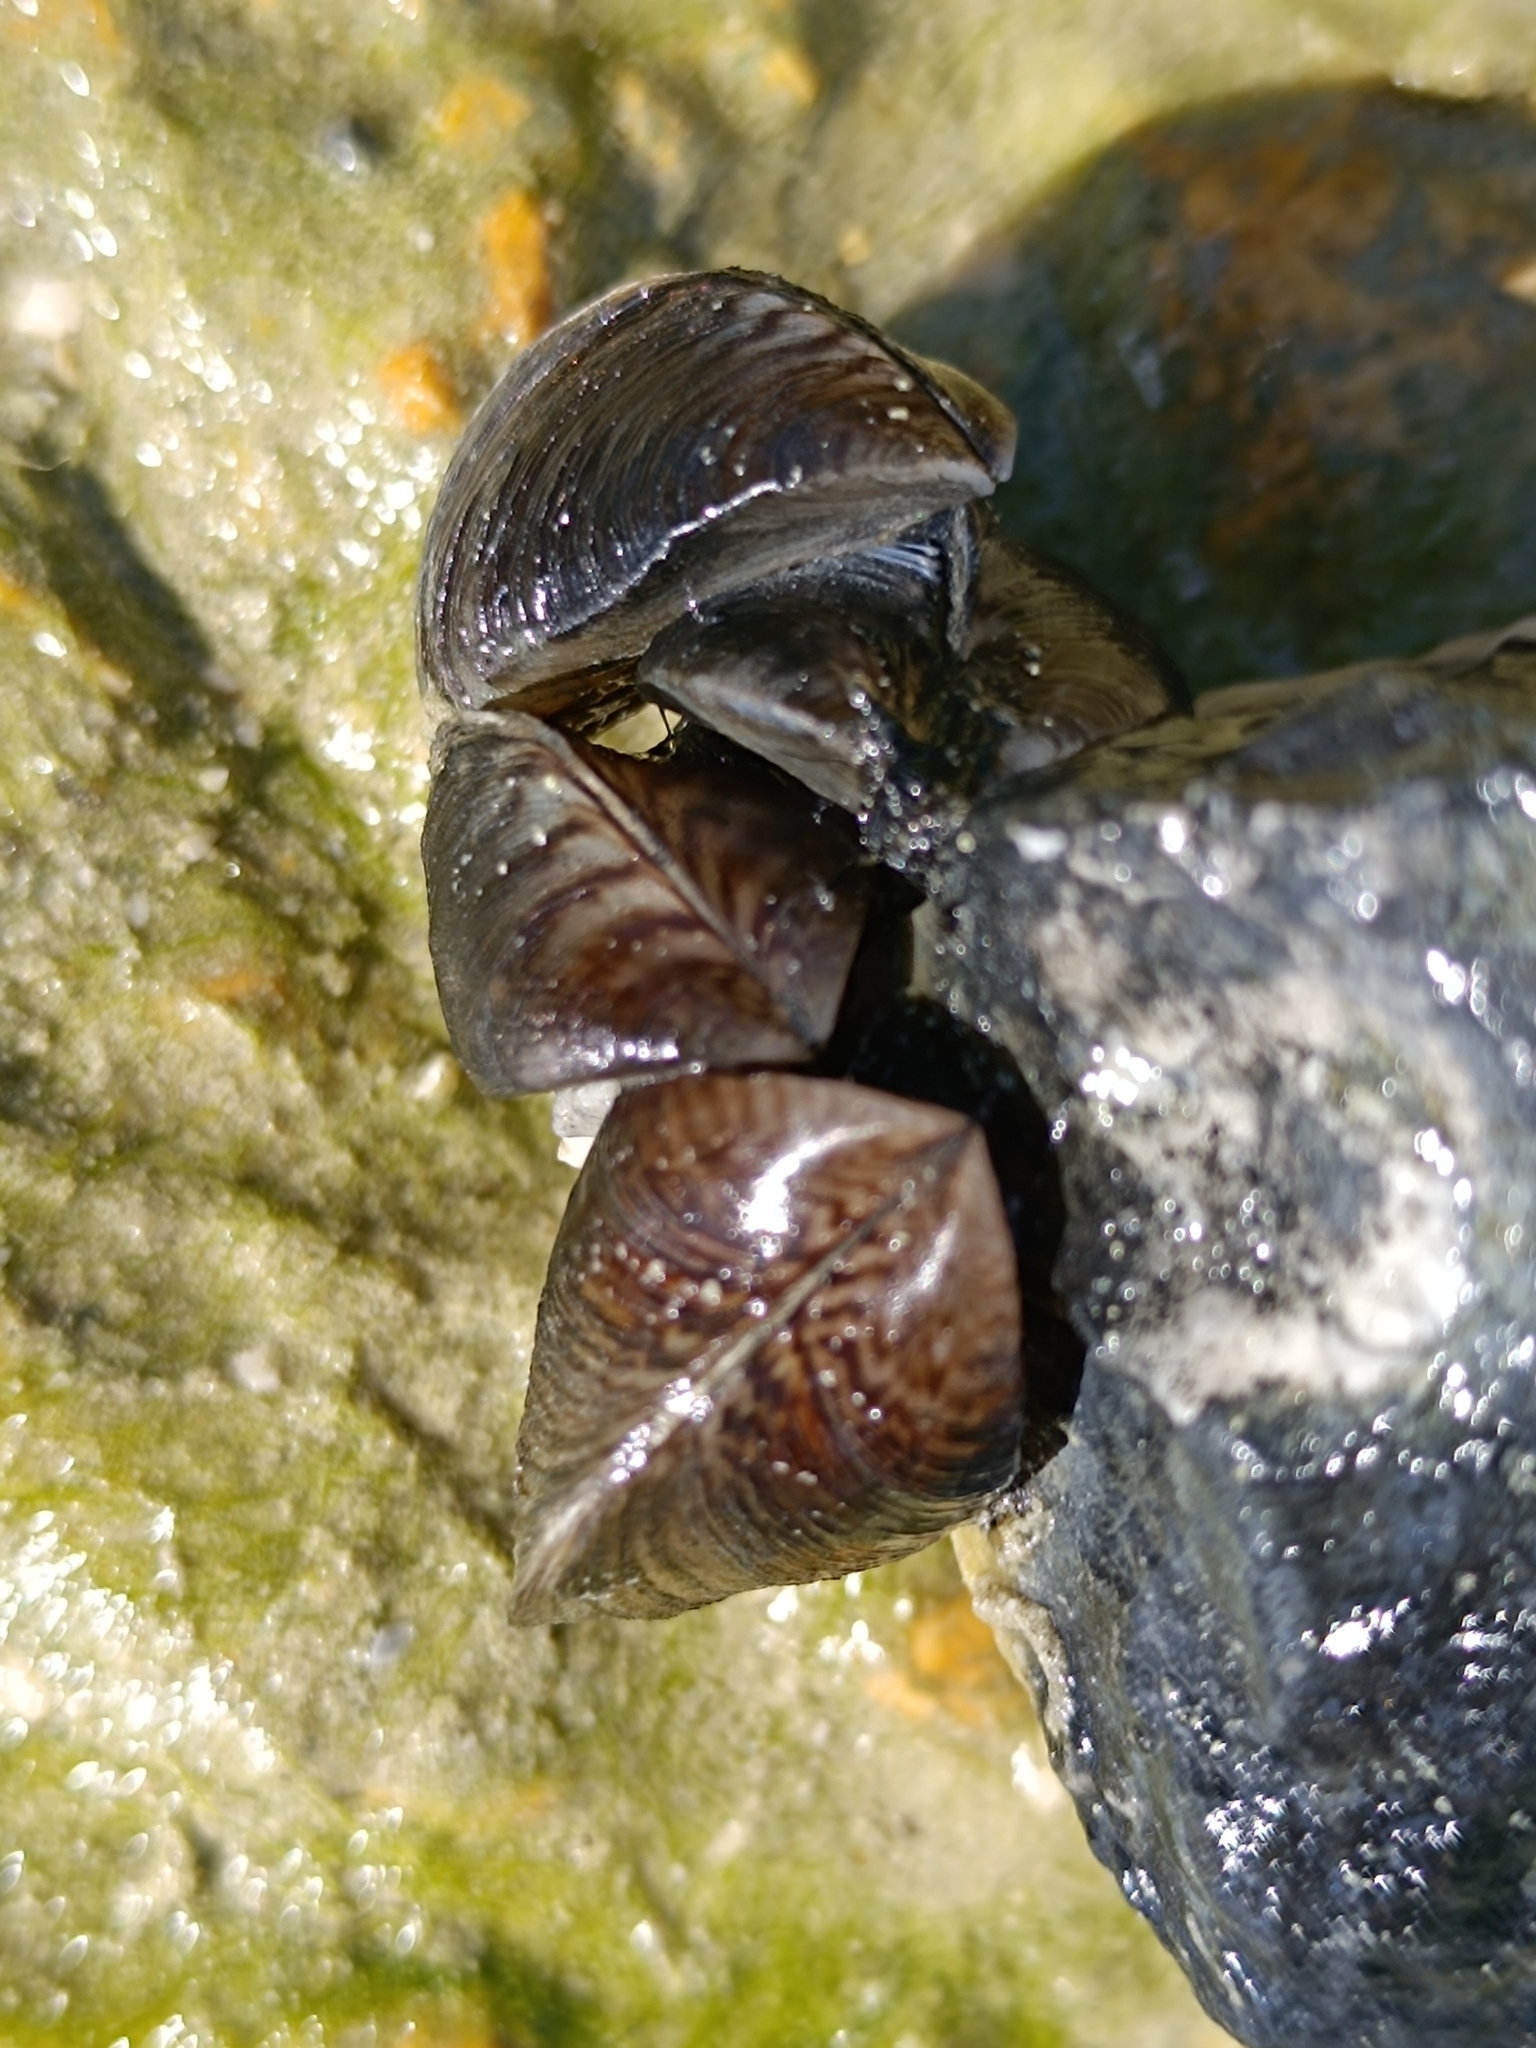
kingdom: Animalia
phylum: Mollusca
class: Bivalvia
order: Myida
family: Dreissenidae
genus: Dreissena
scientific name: Dreissena polymorpha
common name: Zebra mussel
